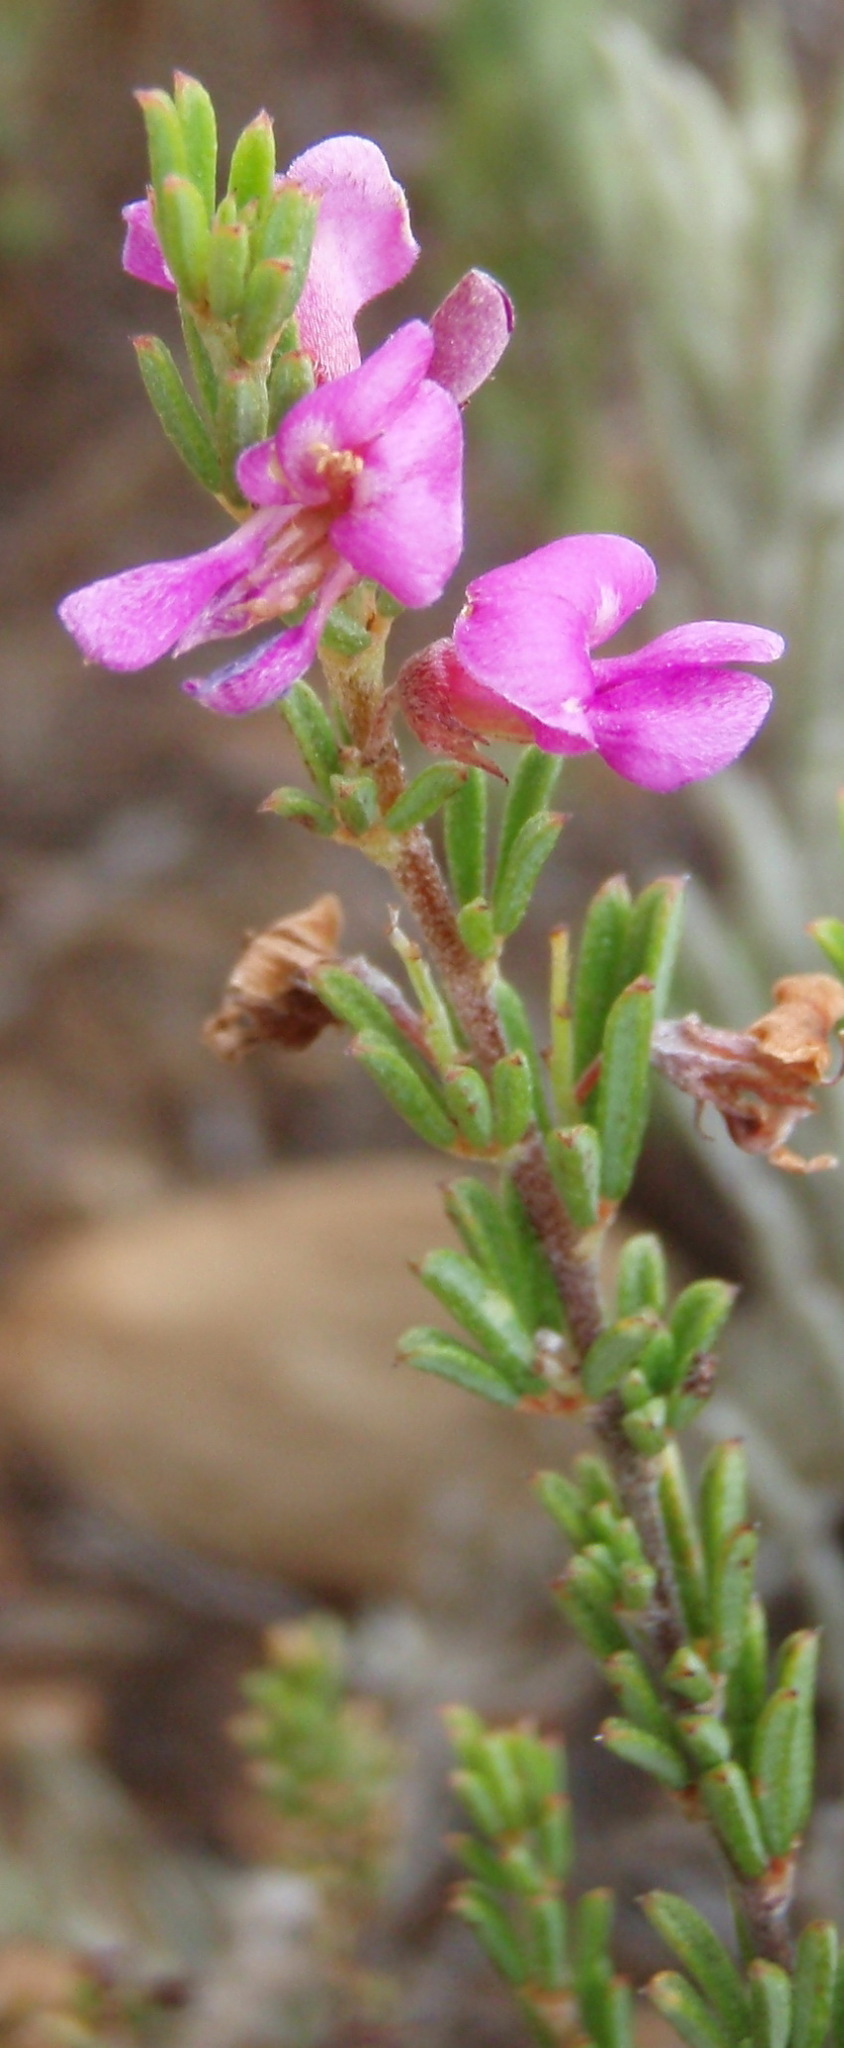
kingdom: Plantae
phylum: Tracheophyta
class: Magnoliopsida
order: Fabales
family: Fabaceae
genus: Indigofera
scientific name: Indigofera pappei
